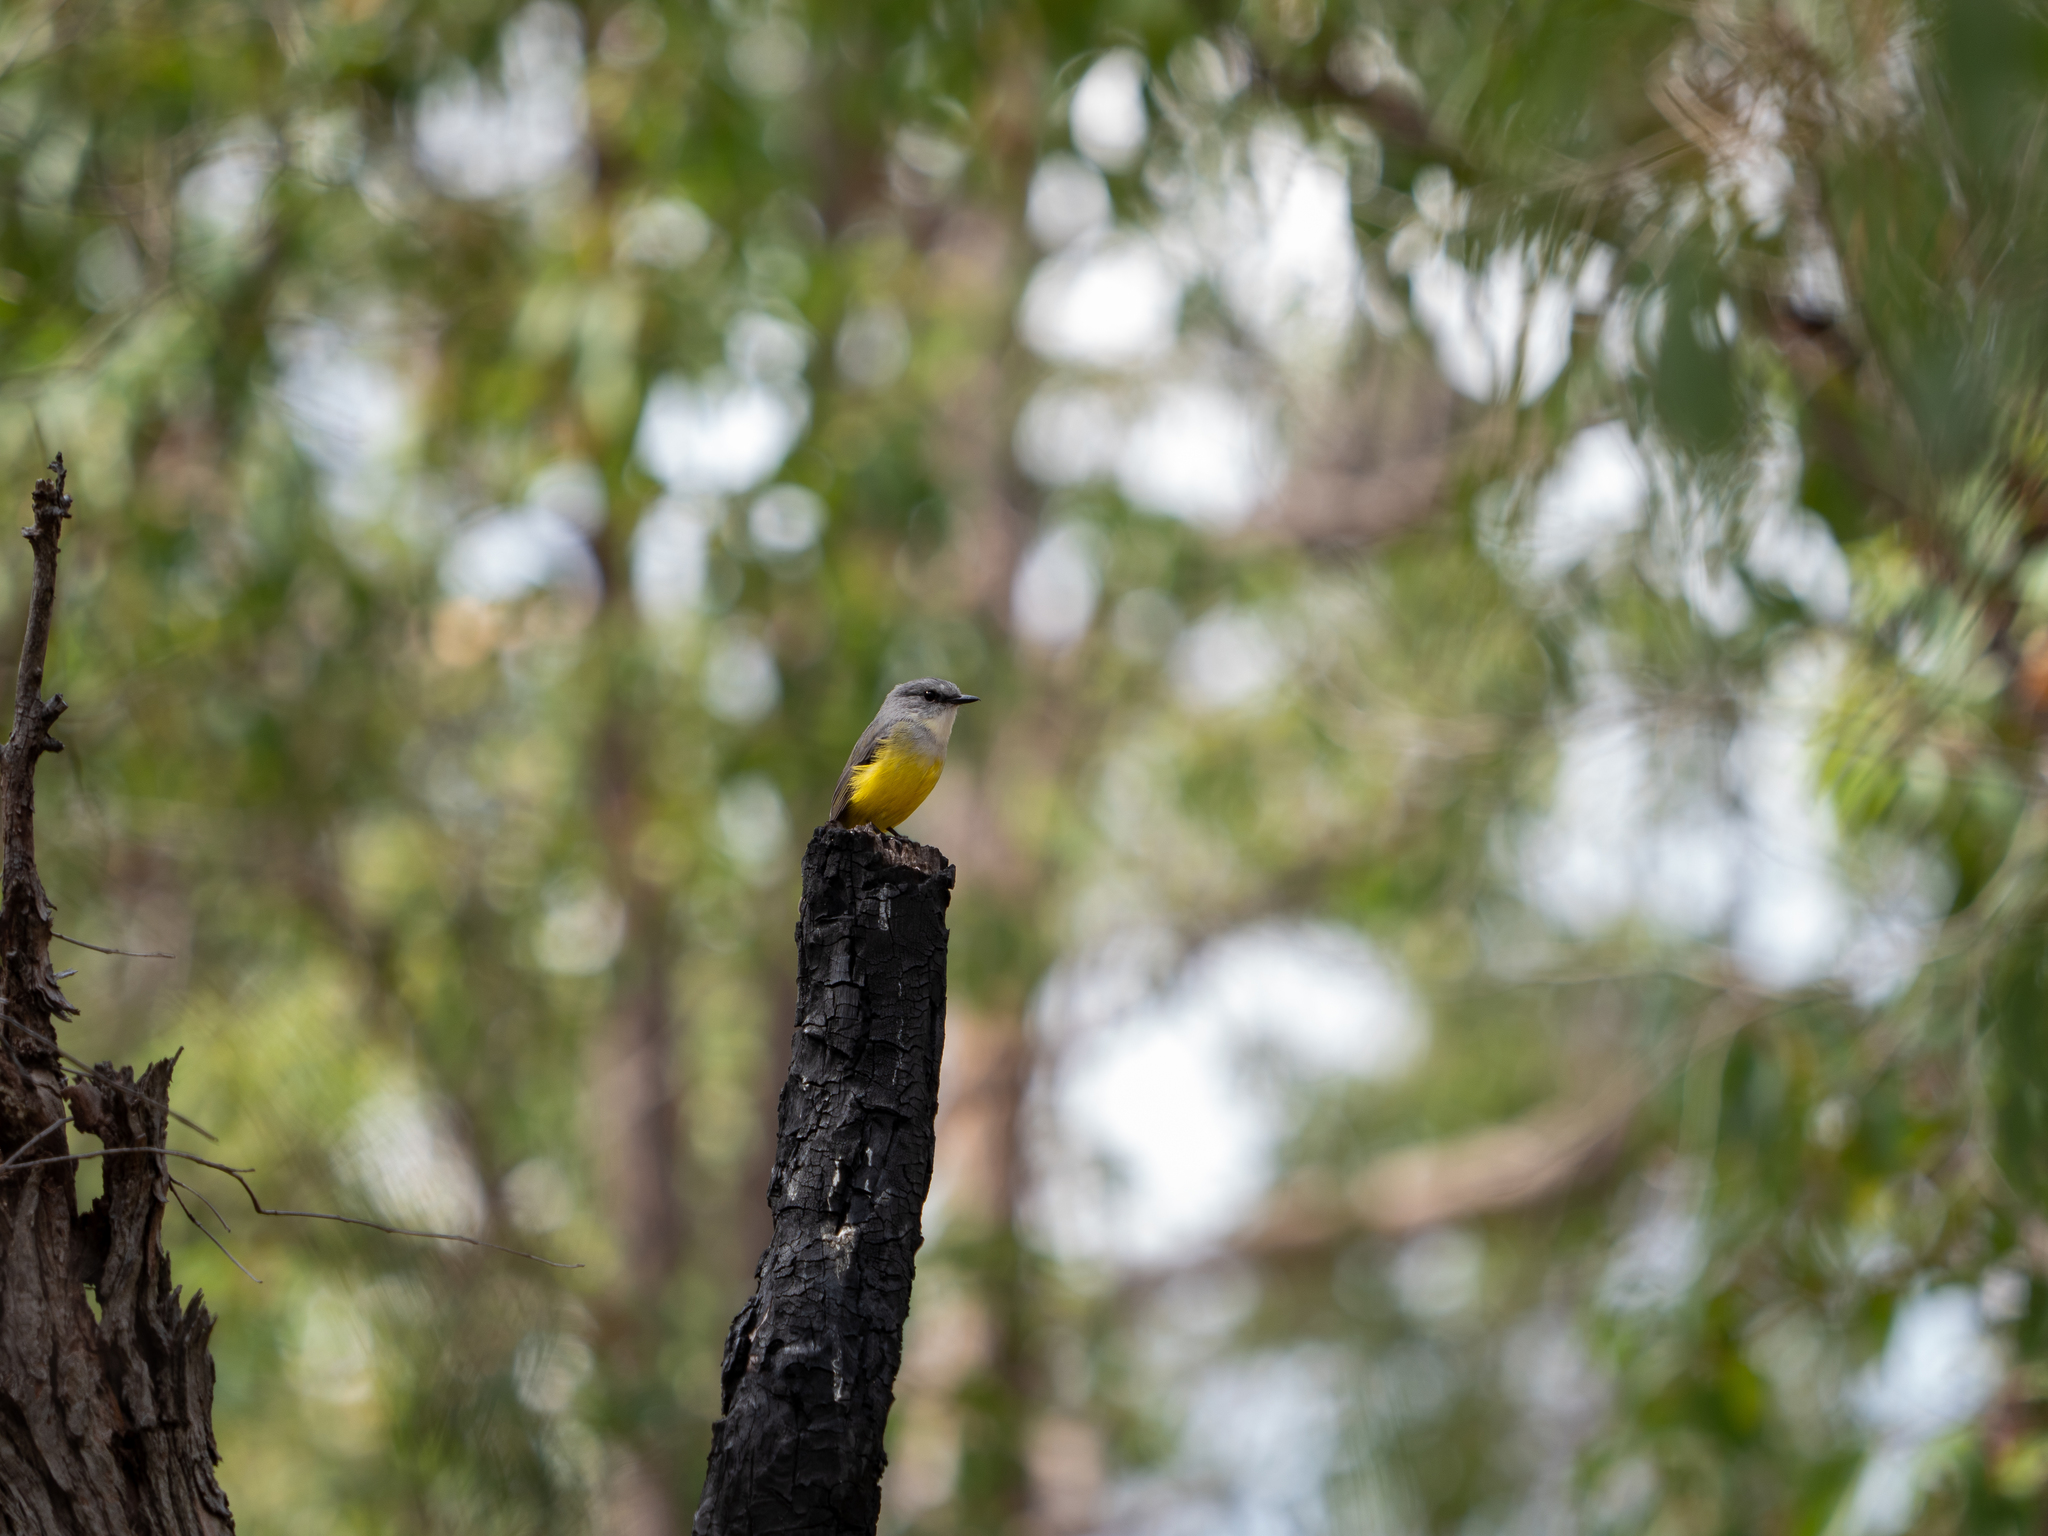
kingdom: Animalia
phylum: Chordata
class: Aves
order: Passeriformes
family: Petroicidae
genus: Eopsaltria
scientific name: Eopsaltria griseogularis
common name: Western yellow robin
